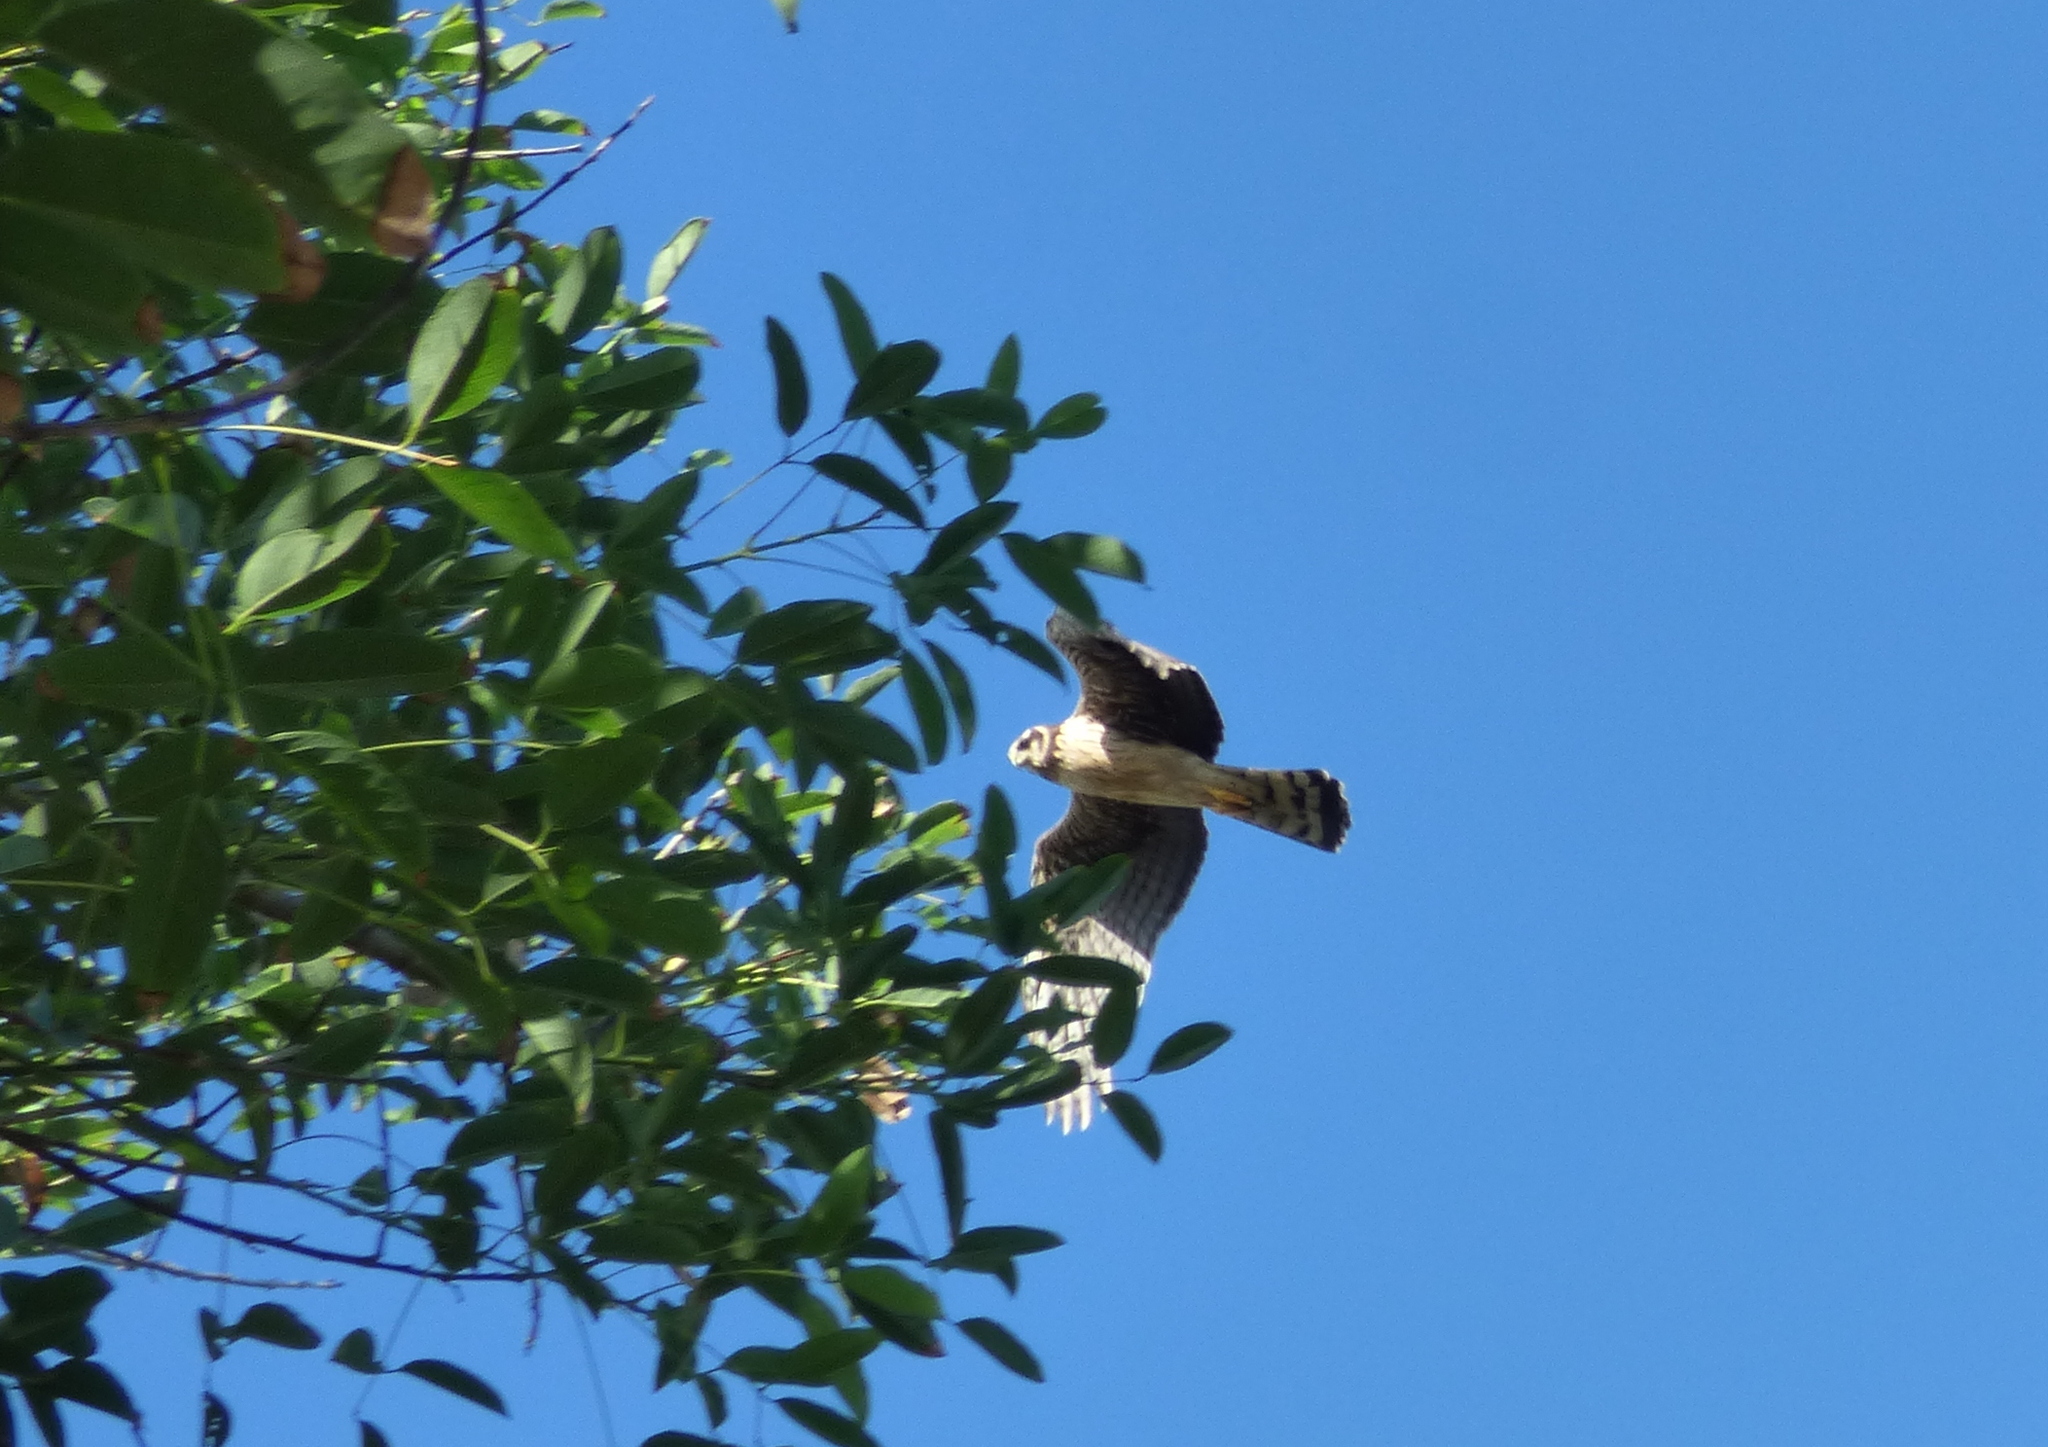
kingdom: Animalia
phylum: Chordata
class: Aves
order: Accipitriformes
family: Accipitridae
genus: Circus
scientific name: Circus buffoni
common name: Long-winged harrier
